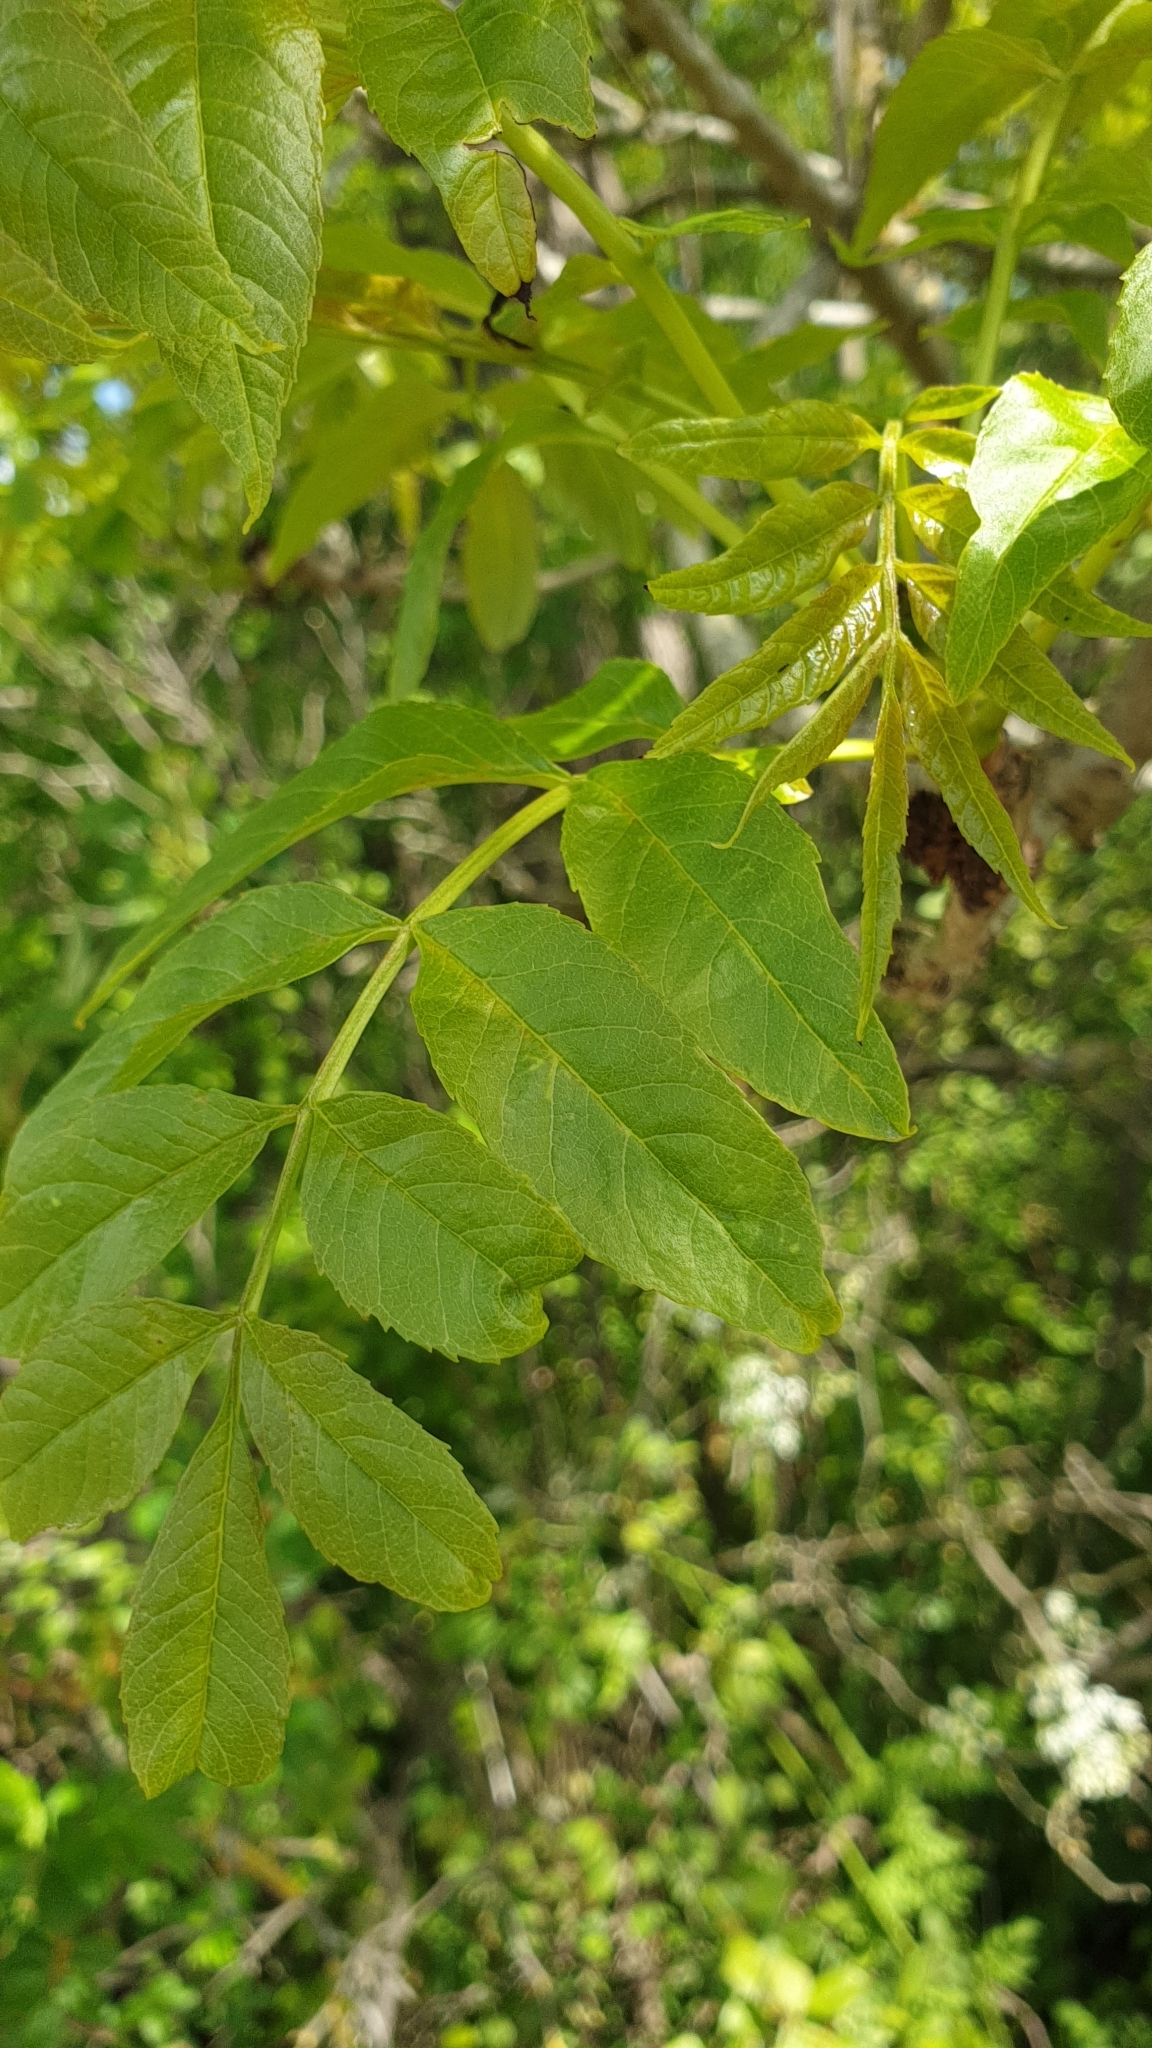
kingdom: Plantae
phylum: Tracheophyta
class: Magnoliopsida
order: Lamiales
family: Oleaceae
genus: Fraxinus
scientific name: Fraxinus excelsior
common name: European ash
